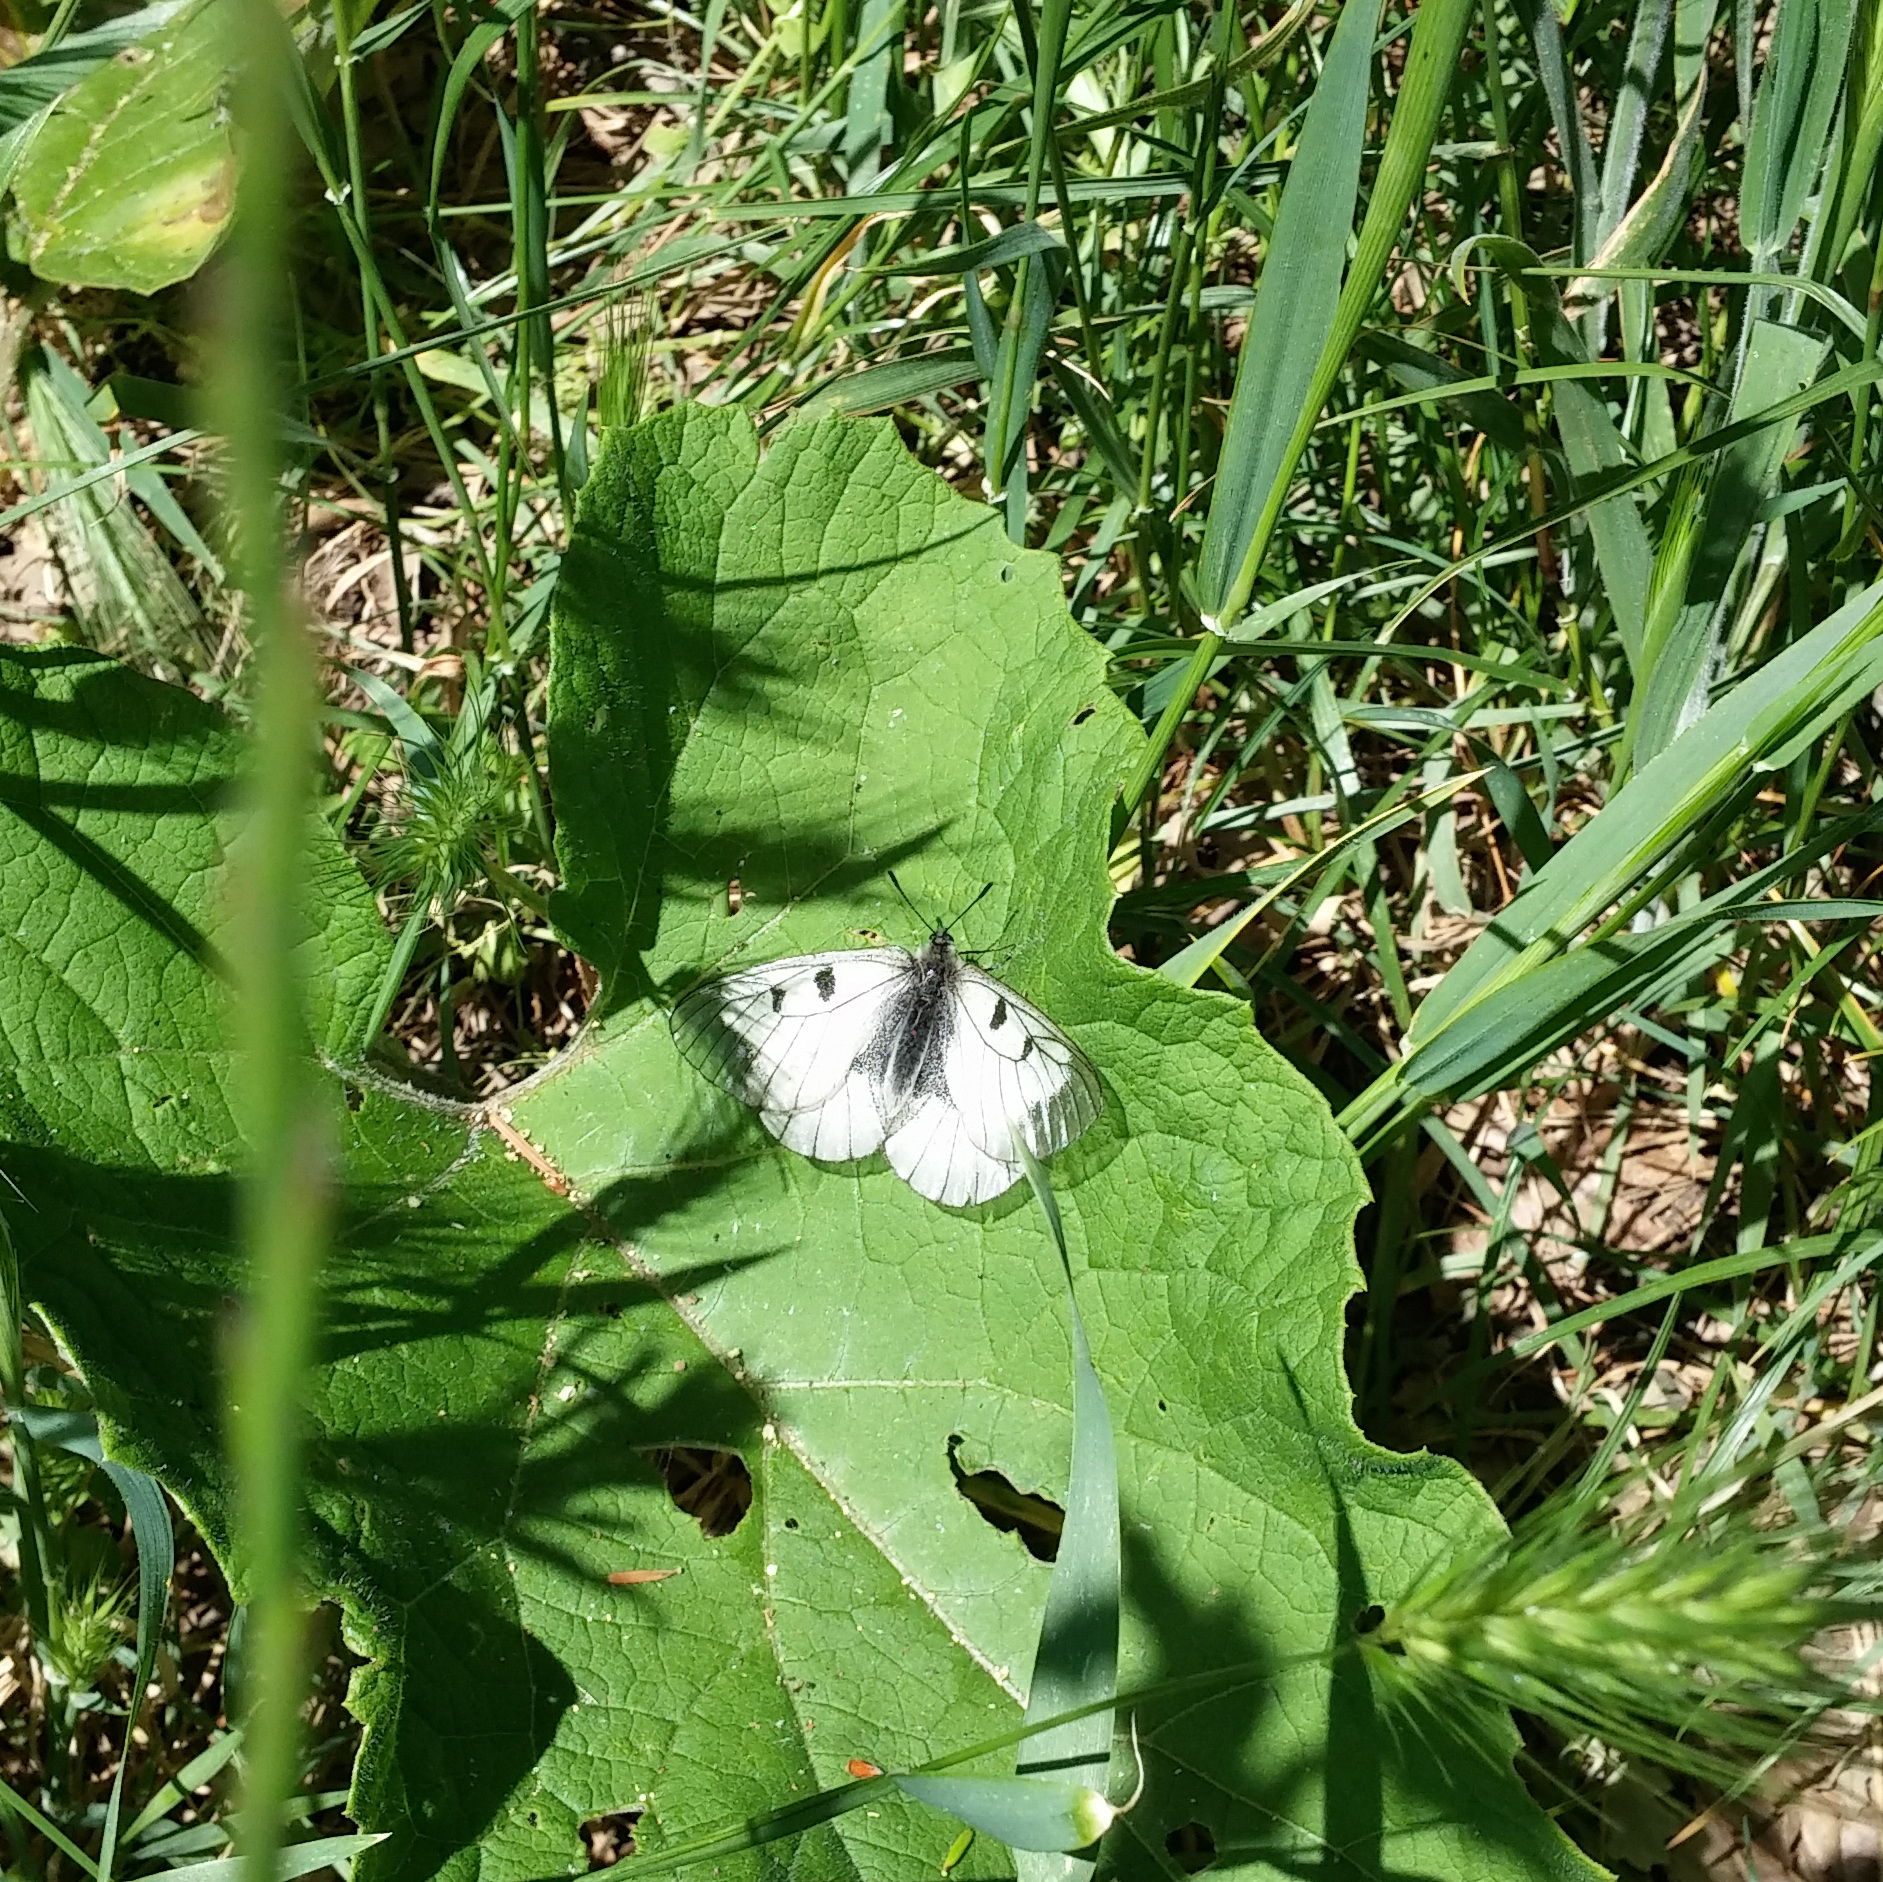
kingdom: Animalia
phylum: Arthropoda
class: Insecta
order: Lepidoptera
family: Papilionidae
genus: Parnassius
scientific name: Parnassius mnemosyne
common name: Clouded apollo
